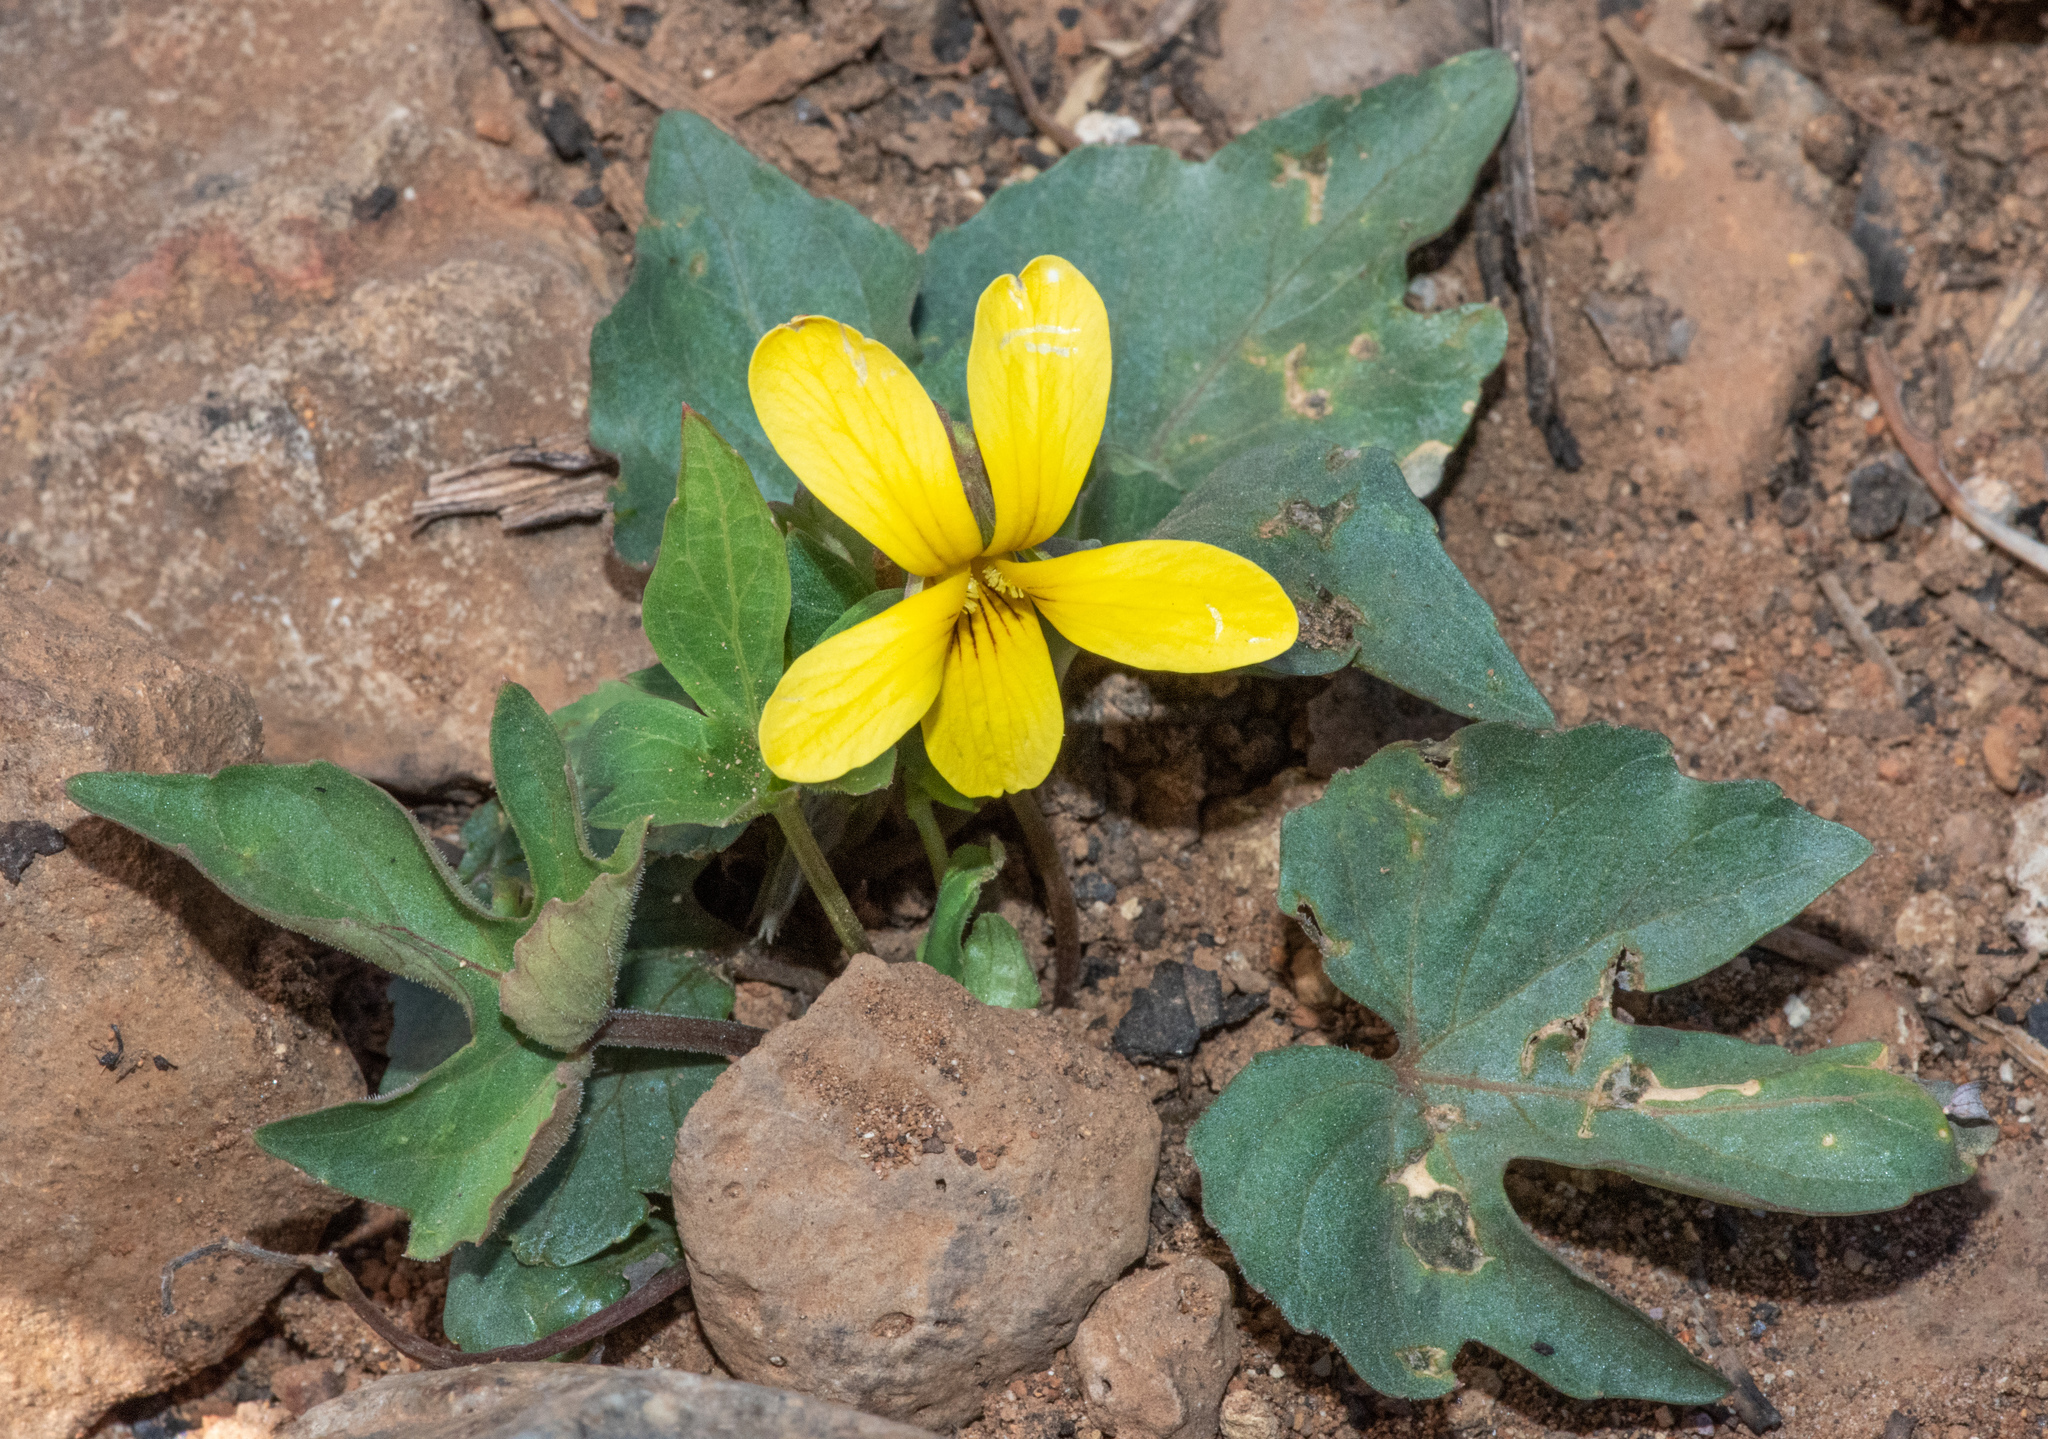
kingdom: Plantae
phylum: Tracheophyta
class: Magnoliopsida
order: Malpighiales
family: Violaceae
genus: Viola
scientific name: Viola lobata
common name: Pine violet
